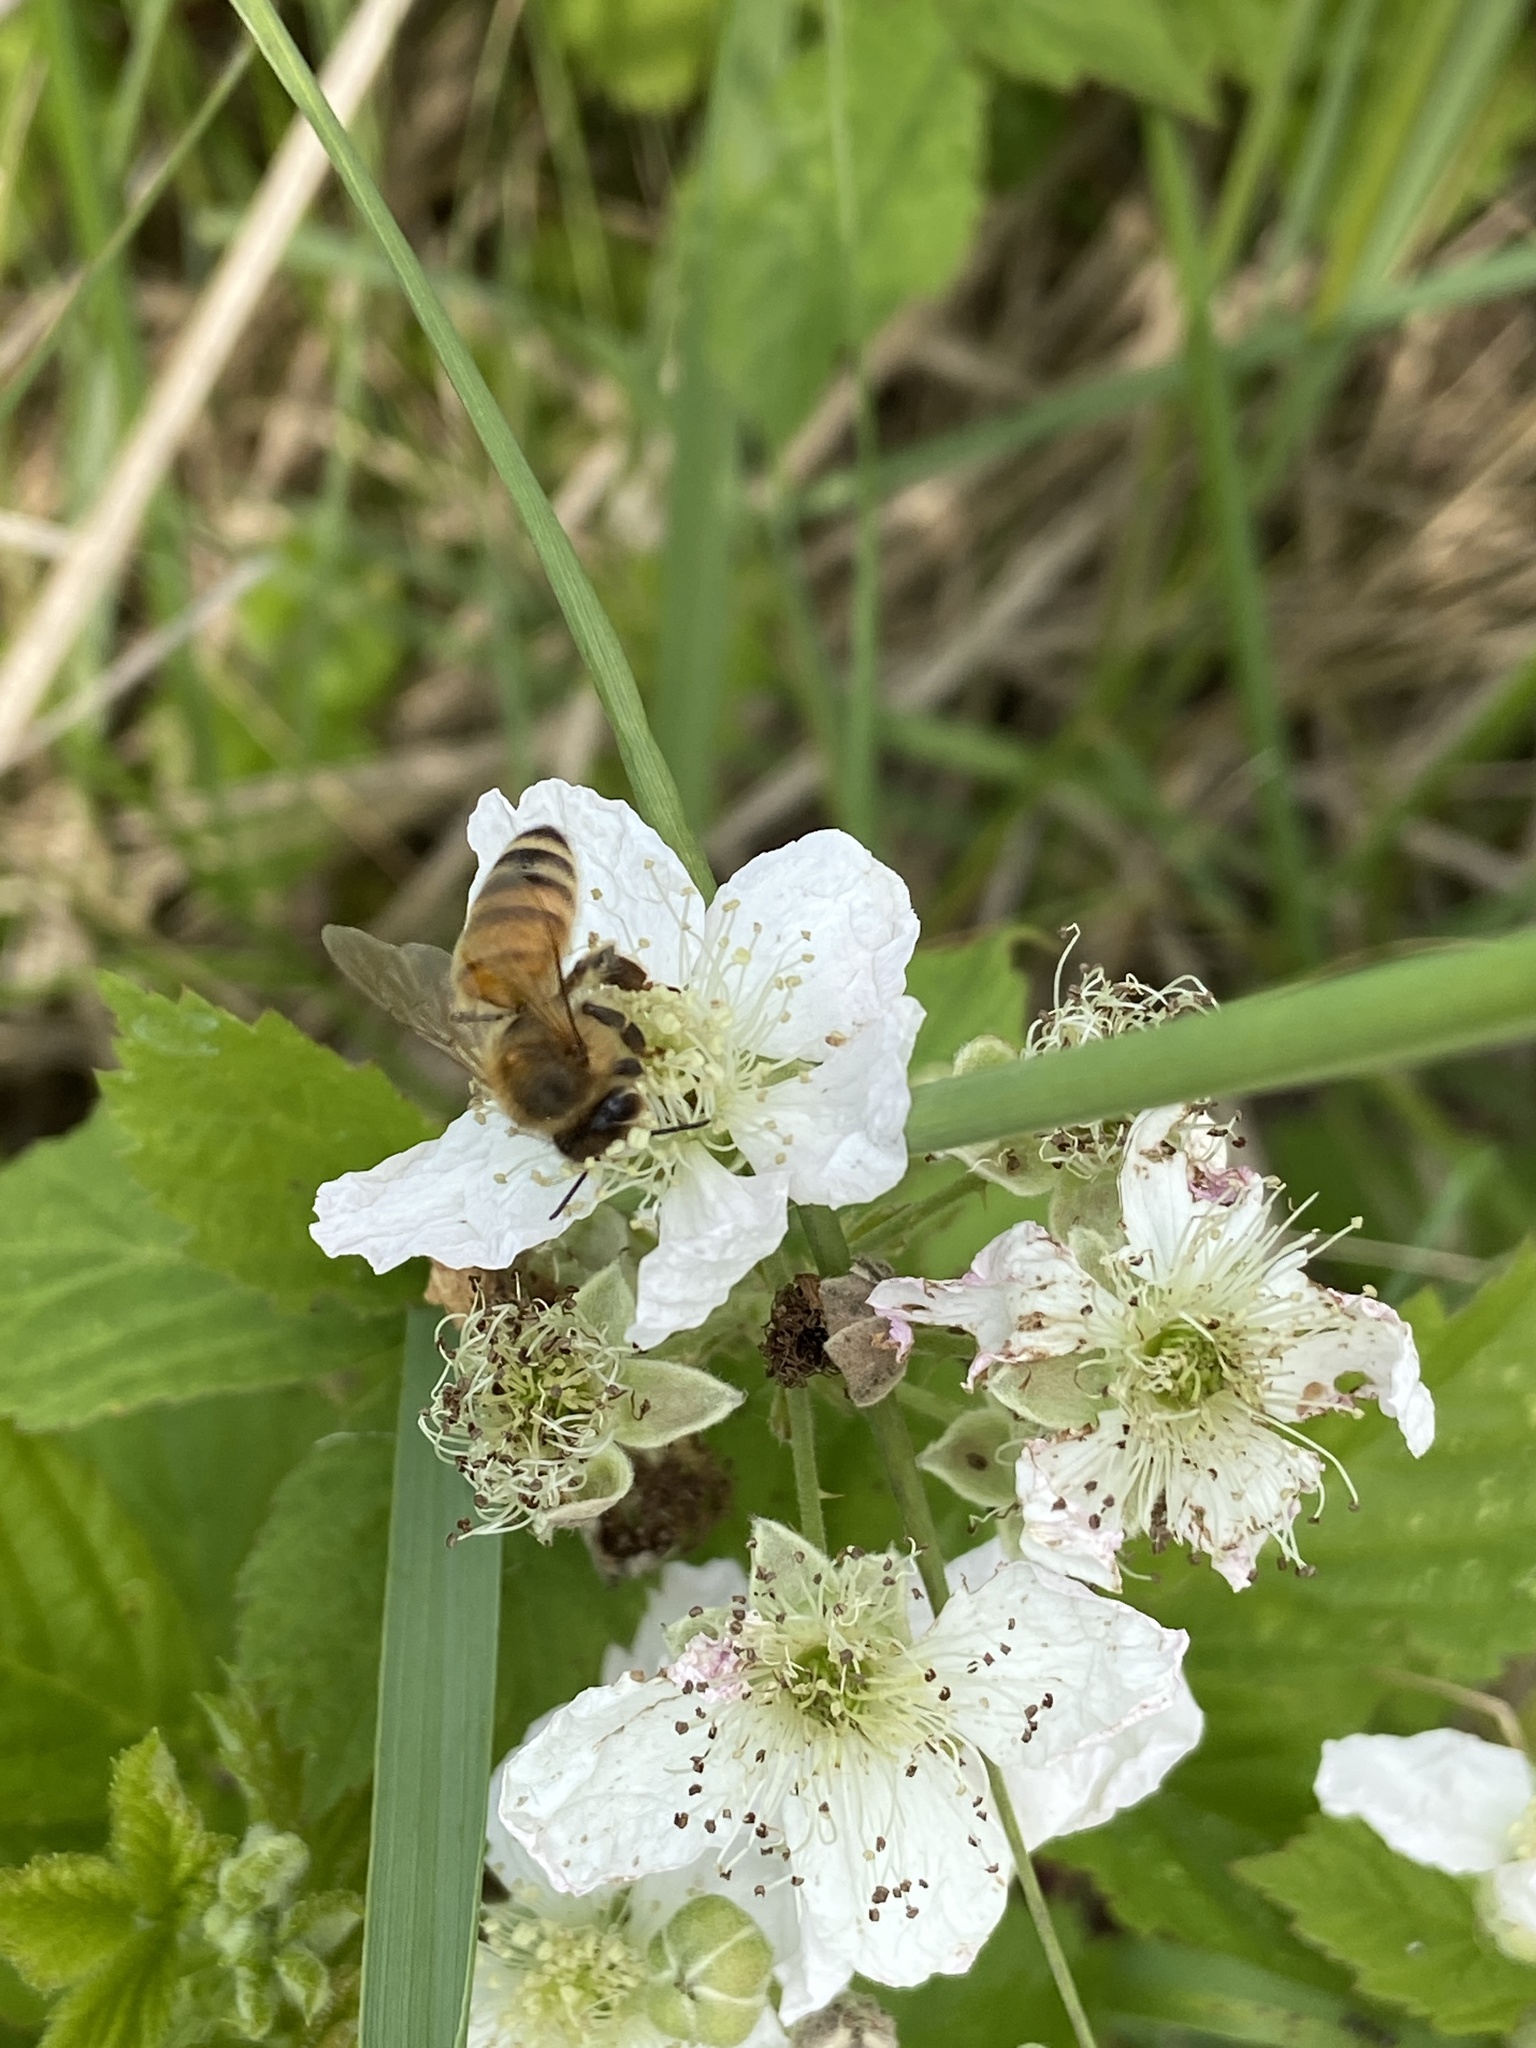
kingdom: Animalia
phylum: Arthropoda
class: Insecta
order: Hymenoptera
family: Apidae
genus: Apis
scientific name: Apis mellifera
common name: Honey bee
